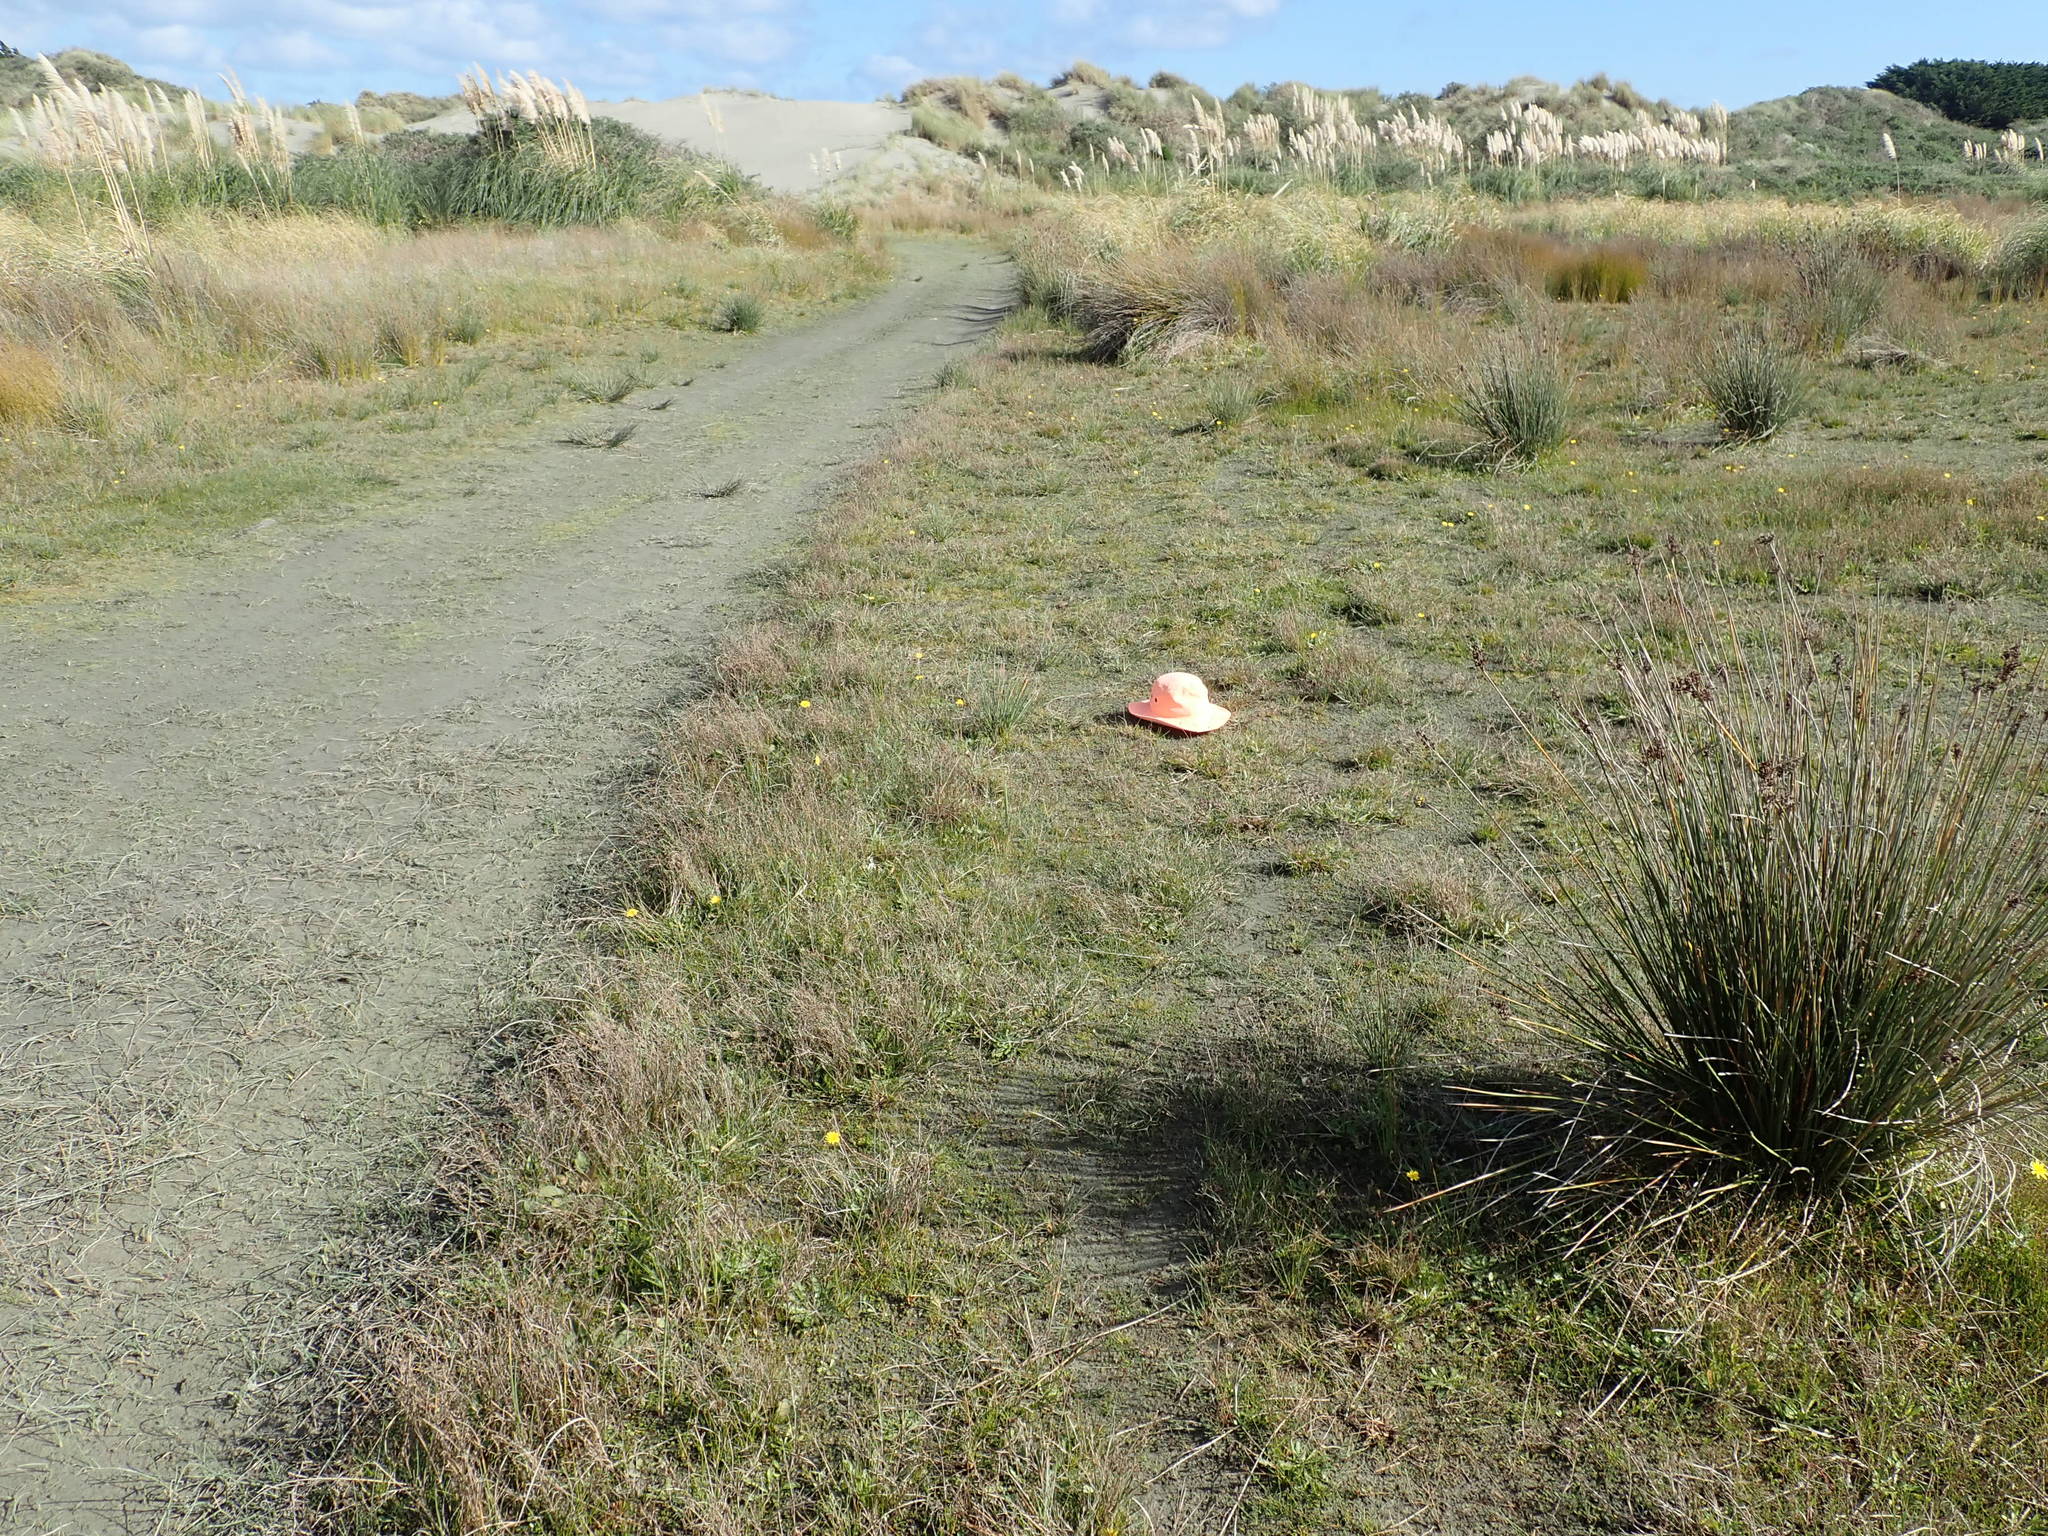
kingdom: Plantae
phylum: Tracheophyta
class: Magnoliopsida
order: Apiales
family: Apiaceae
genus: Lilaeopsis
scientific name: Lilaeopsis novae-zelandiae
